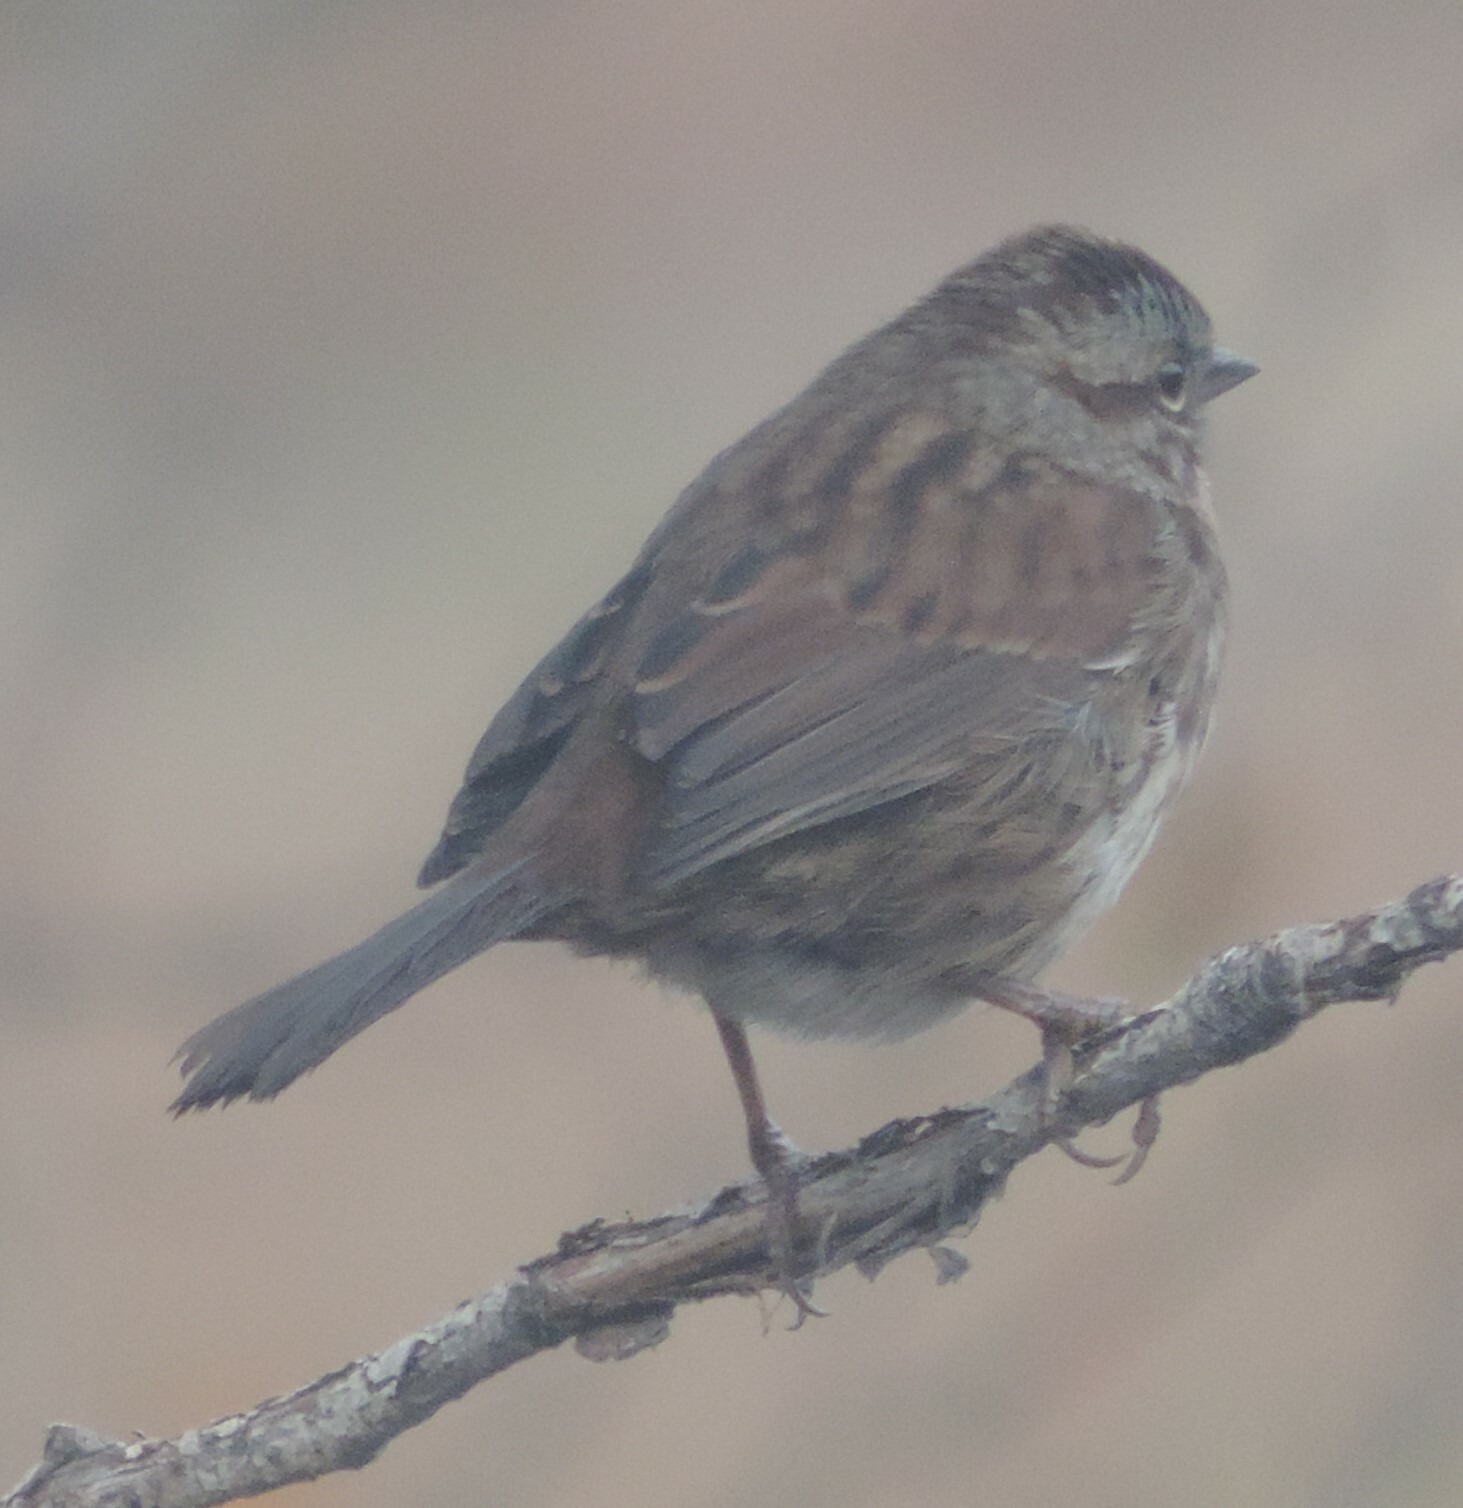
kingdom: Animalia
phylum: Chordata
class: Aves
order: Passeriformes
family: Passerellidae
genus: Melospiza
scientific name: Melospiza melodia
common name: Song sparrow
